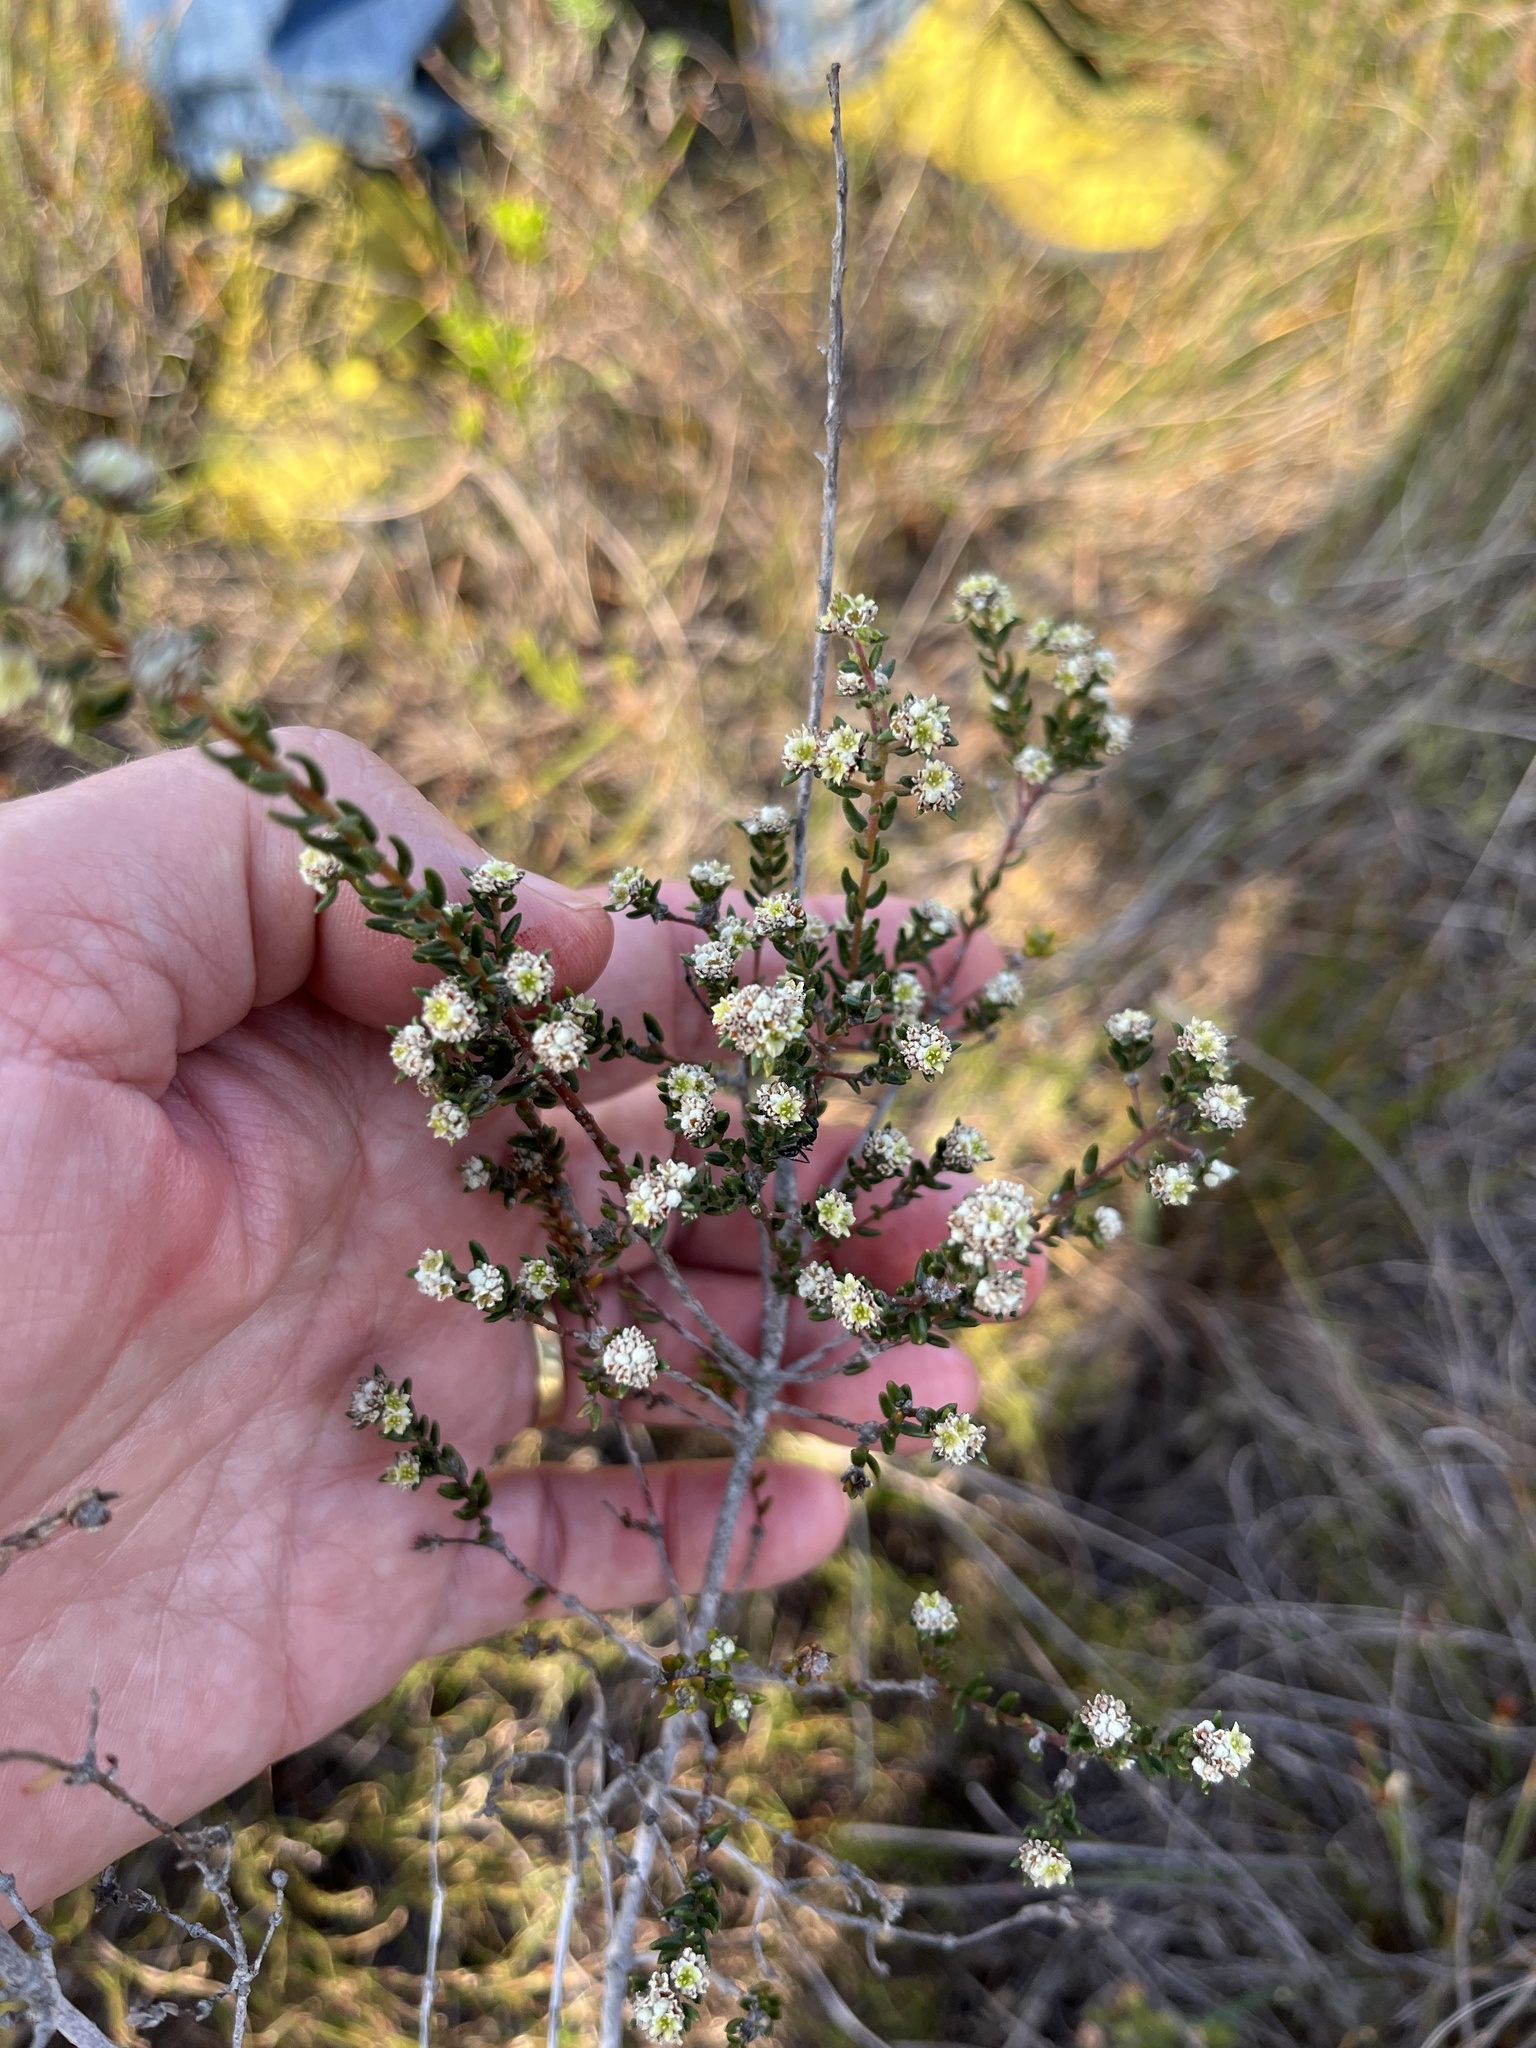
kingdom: Plantae
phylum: Tracheophyta
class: Magnoliopsida
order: Rosales
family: Rhamnaceae
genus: Phylica
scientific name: Phylica parviflora
